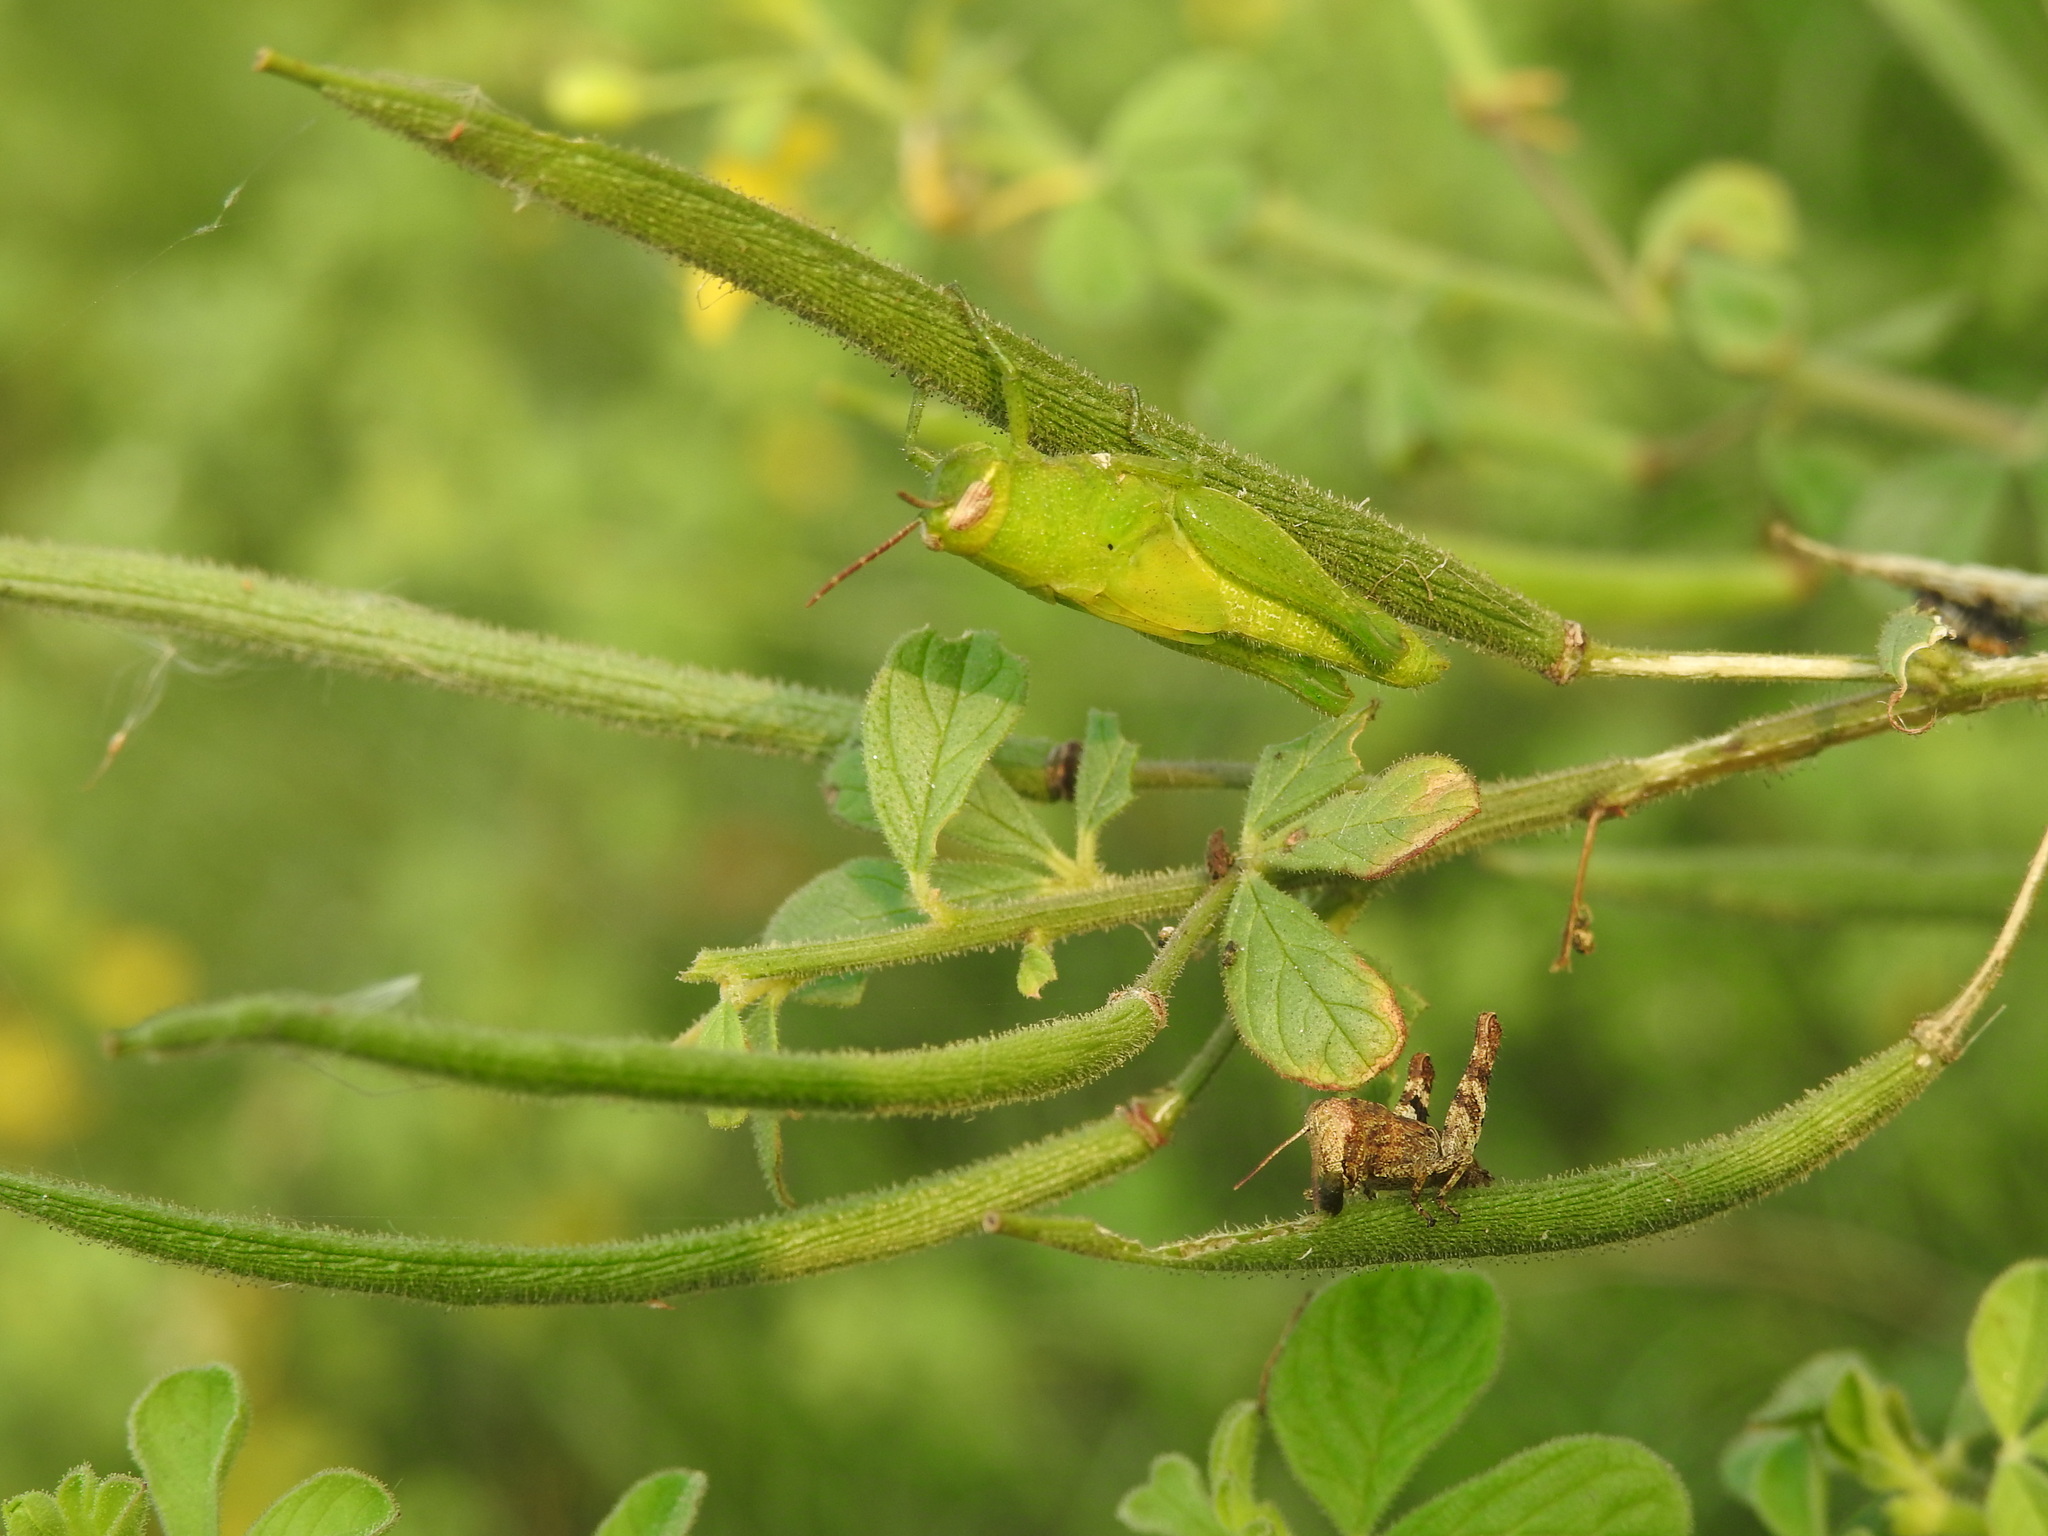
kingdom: Plantae
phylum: Tracheophyta
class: Magnoliopsida
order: Brassicales
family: Cleomaceae
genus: Arivela
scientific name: Arivela viscosa
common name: Asian spiderflower
